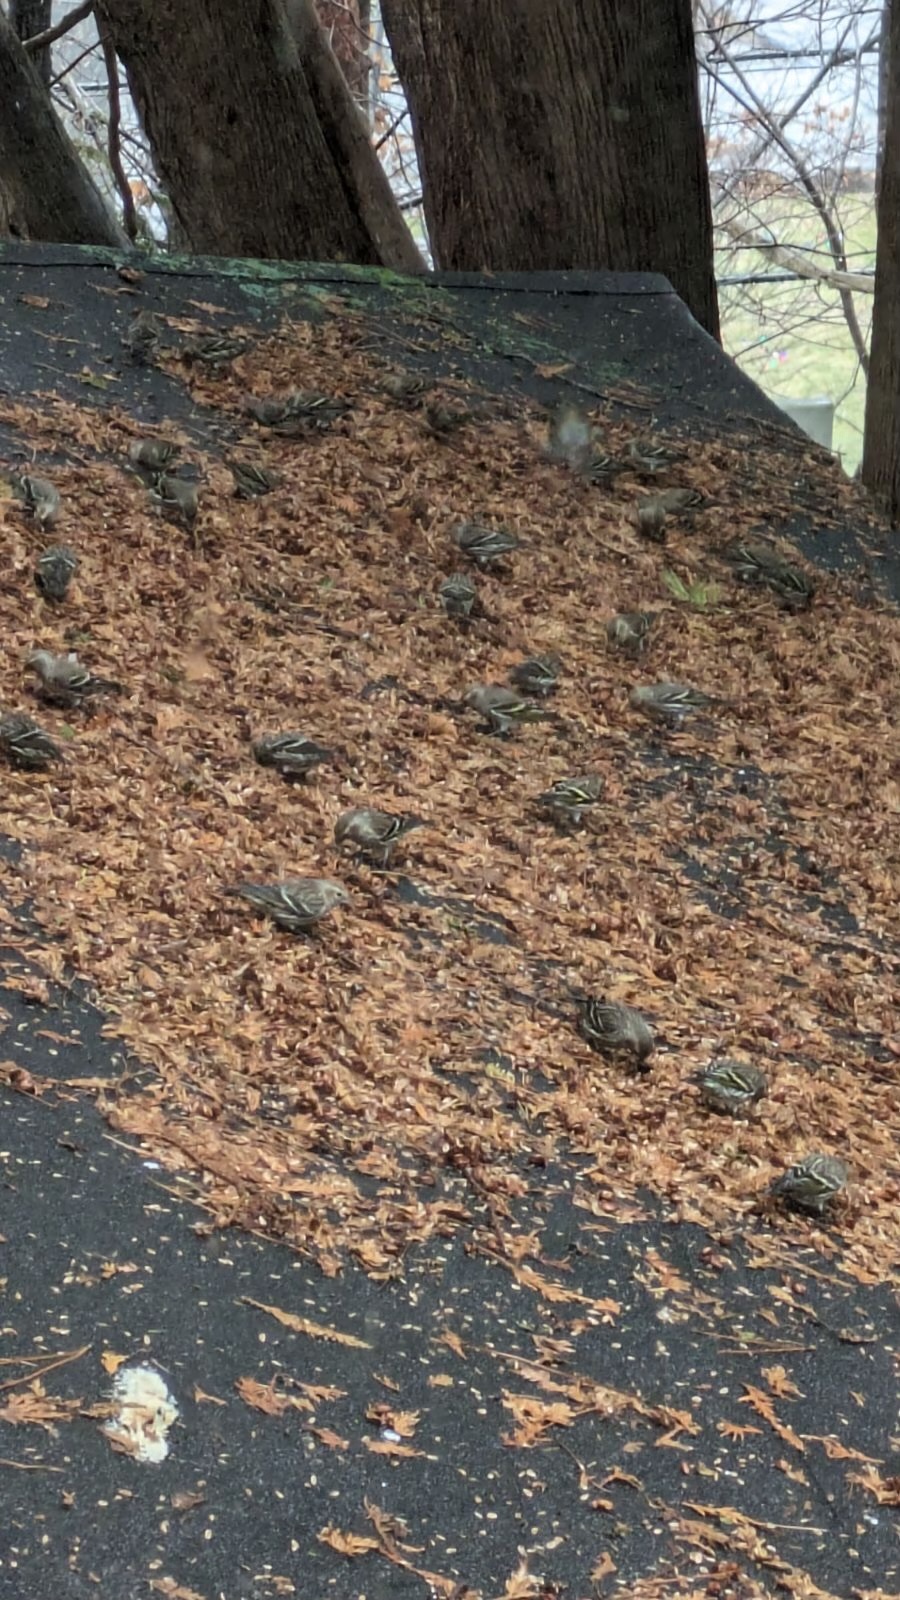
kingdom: Animalia
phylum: Chordata
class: Aves
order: Passeriformes
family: Fringillidae
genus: Spinus
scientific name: Spinus pinus
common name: Pine siskin
